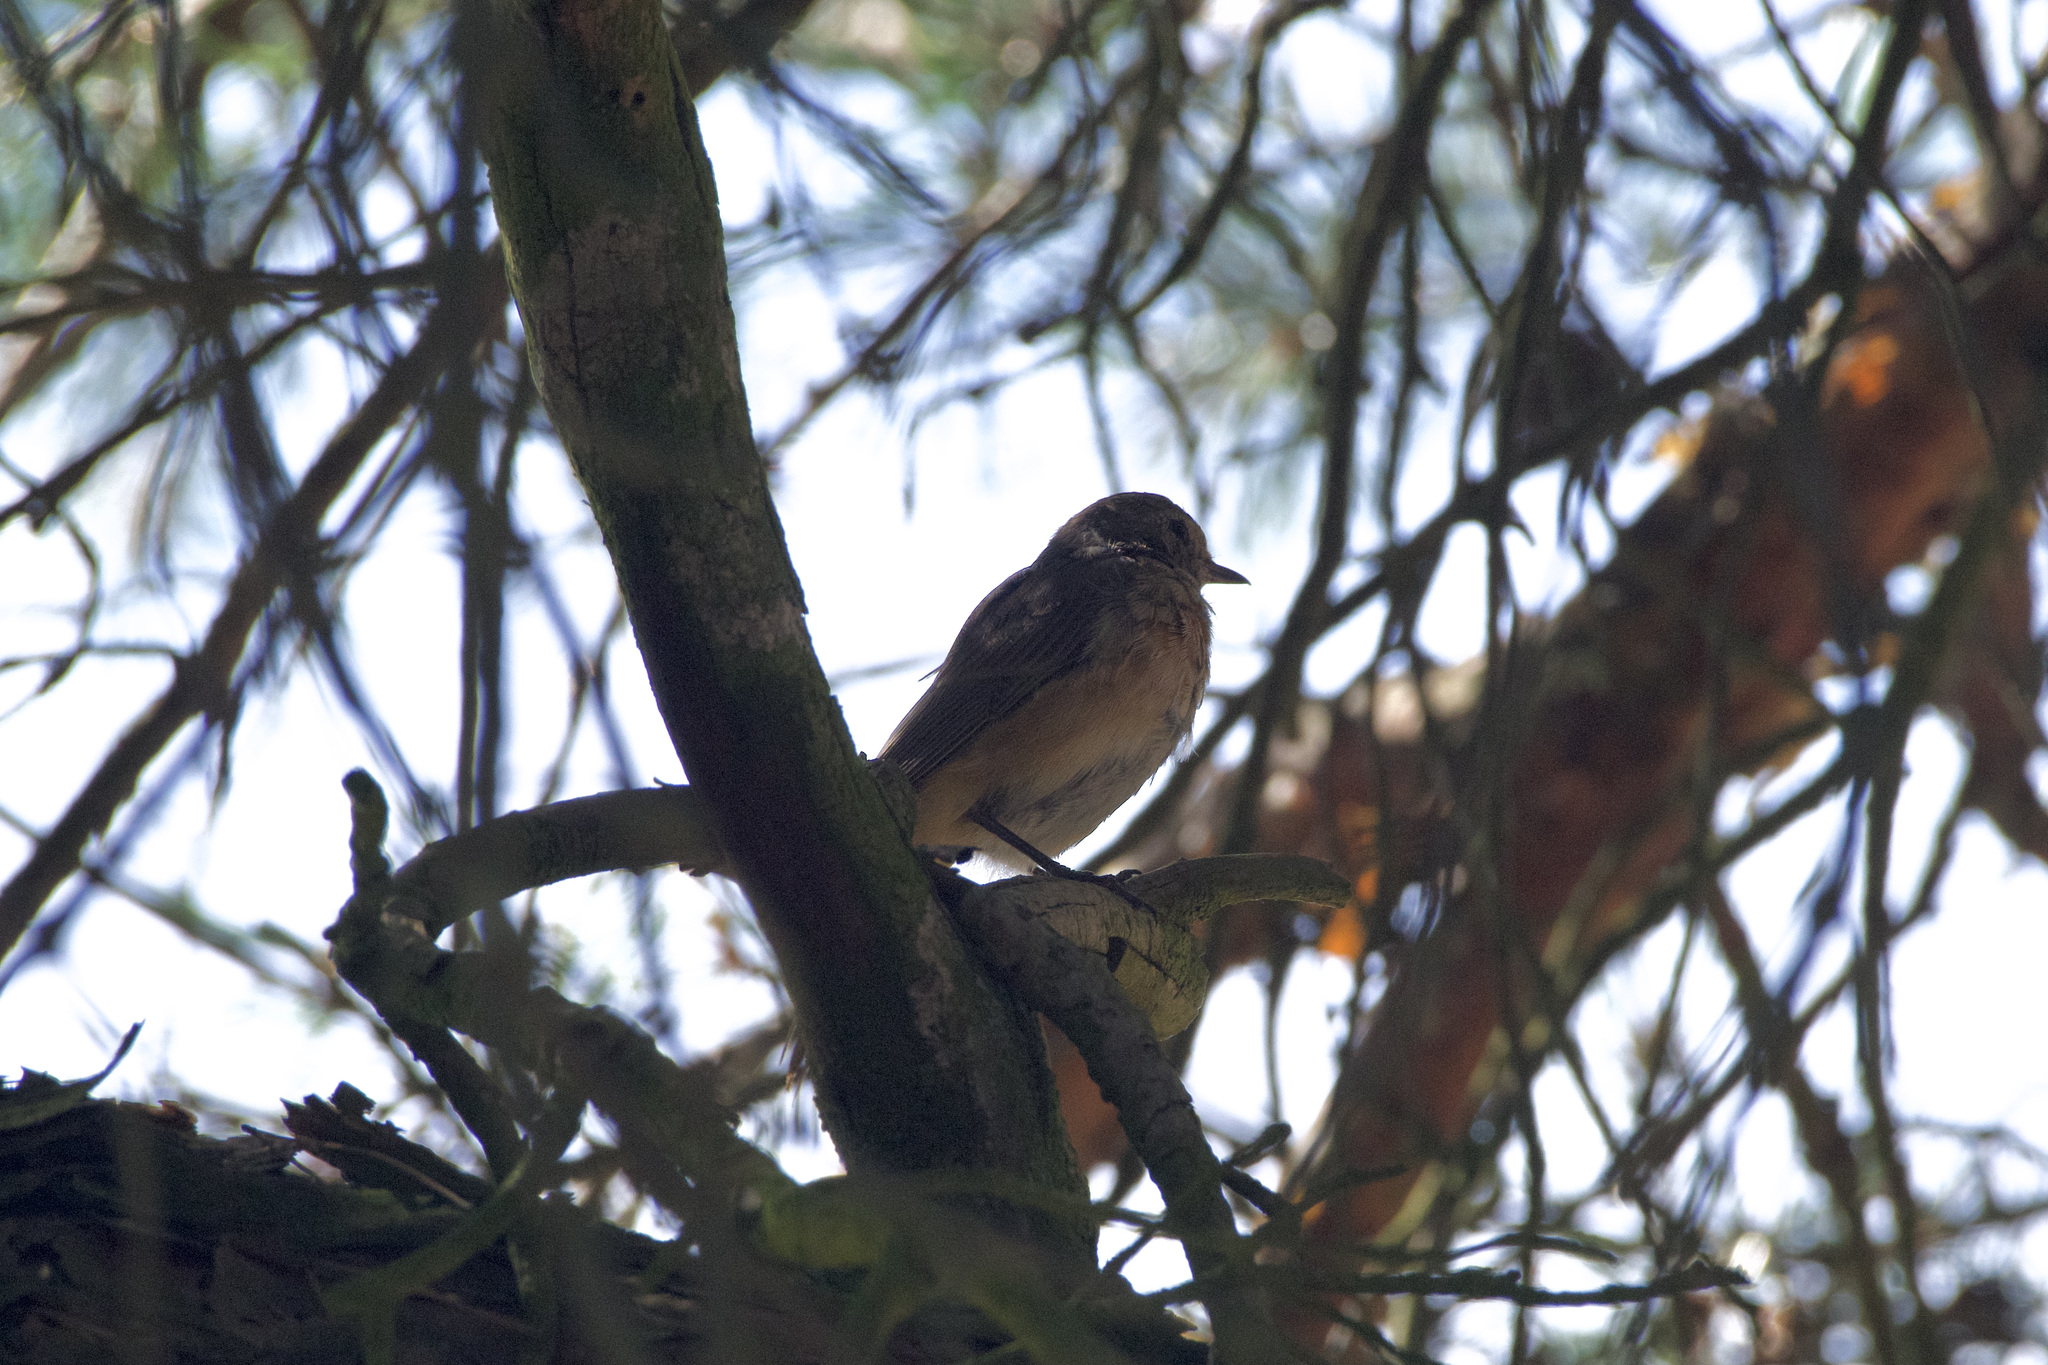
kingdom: Animalia
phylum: Chordata
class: Aves
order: Passeriformes
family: Muscicapidae
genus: Phoenicurus
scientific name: Phoenicurus phoenicurus
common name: Common redstart
